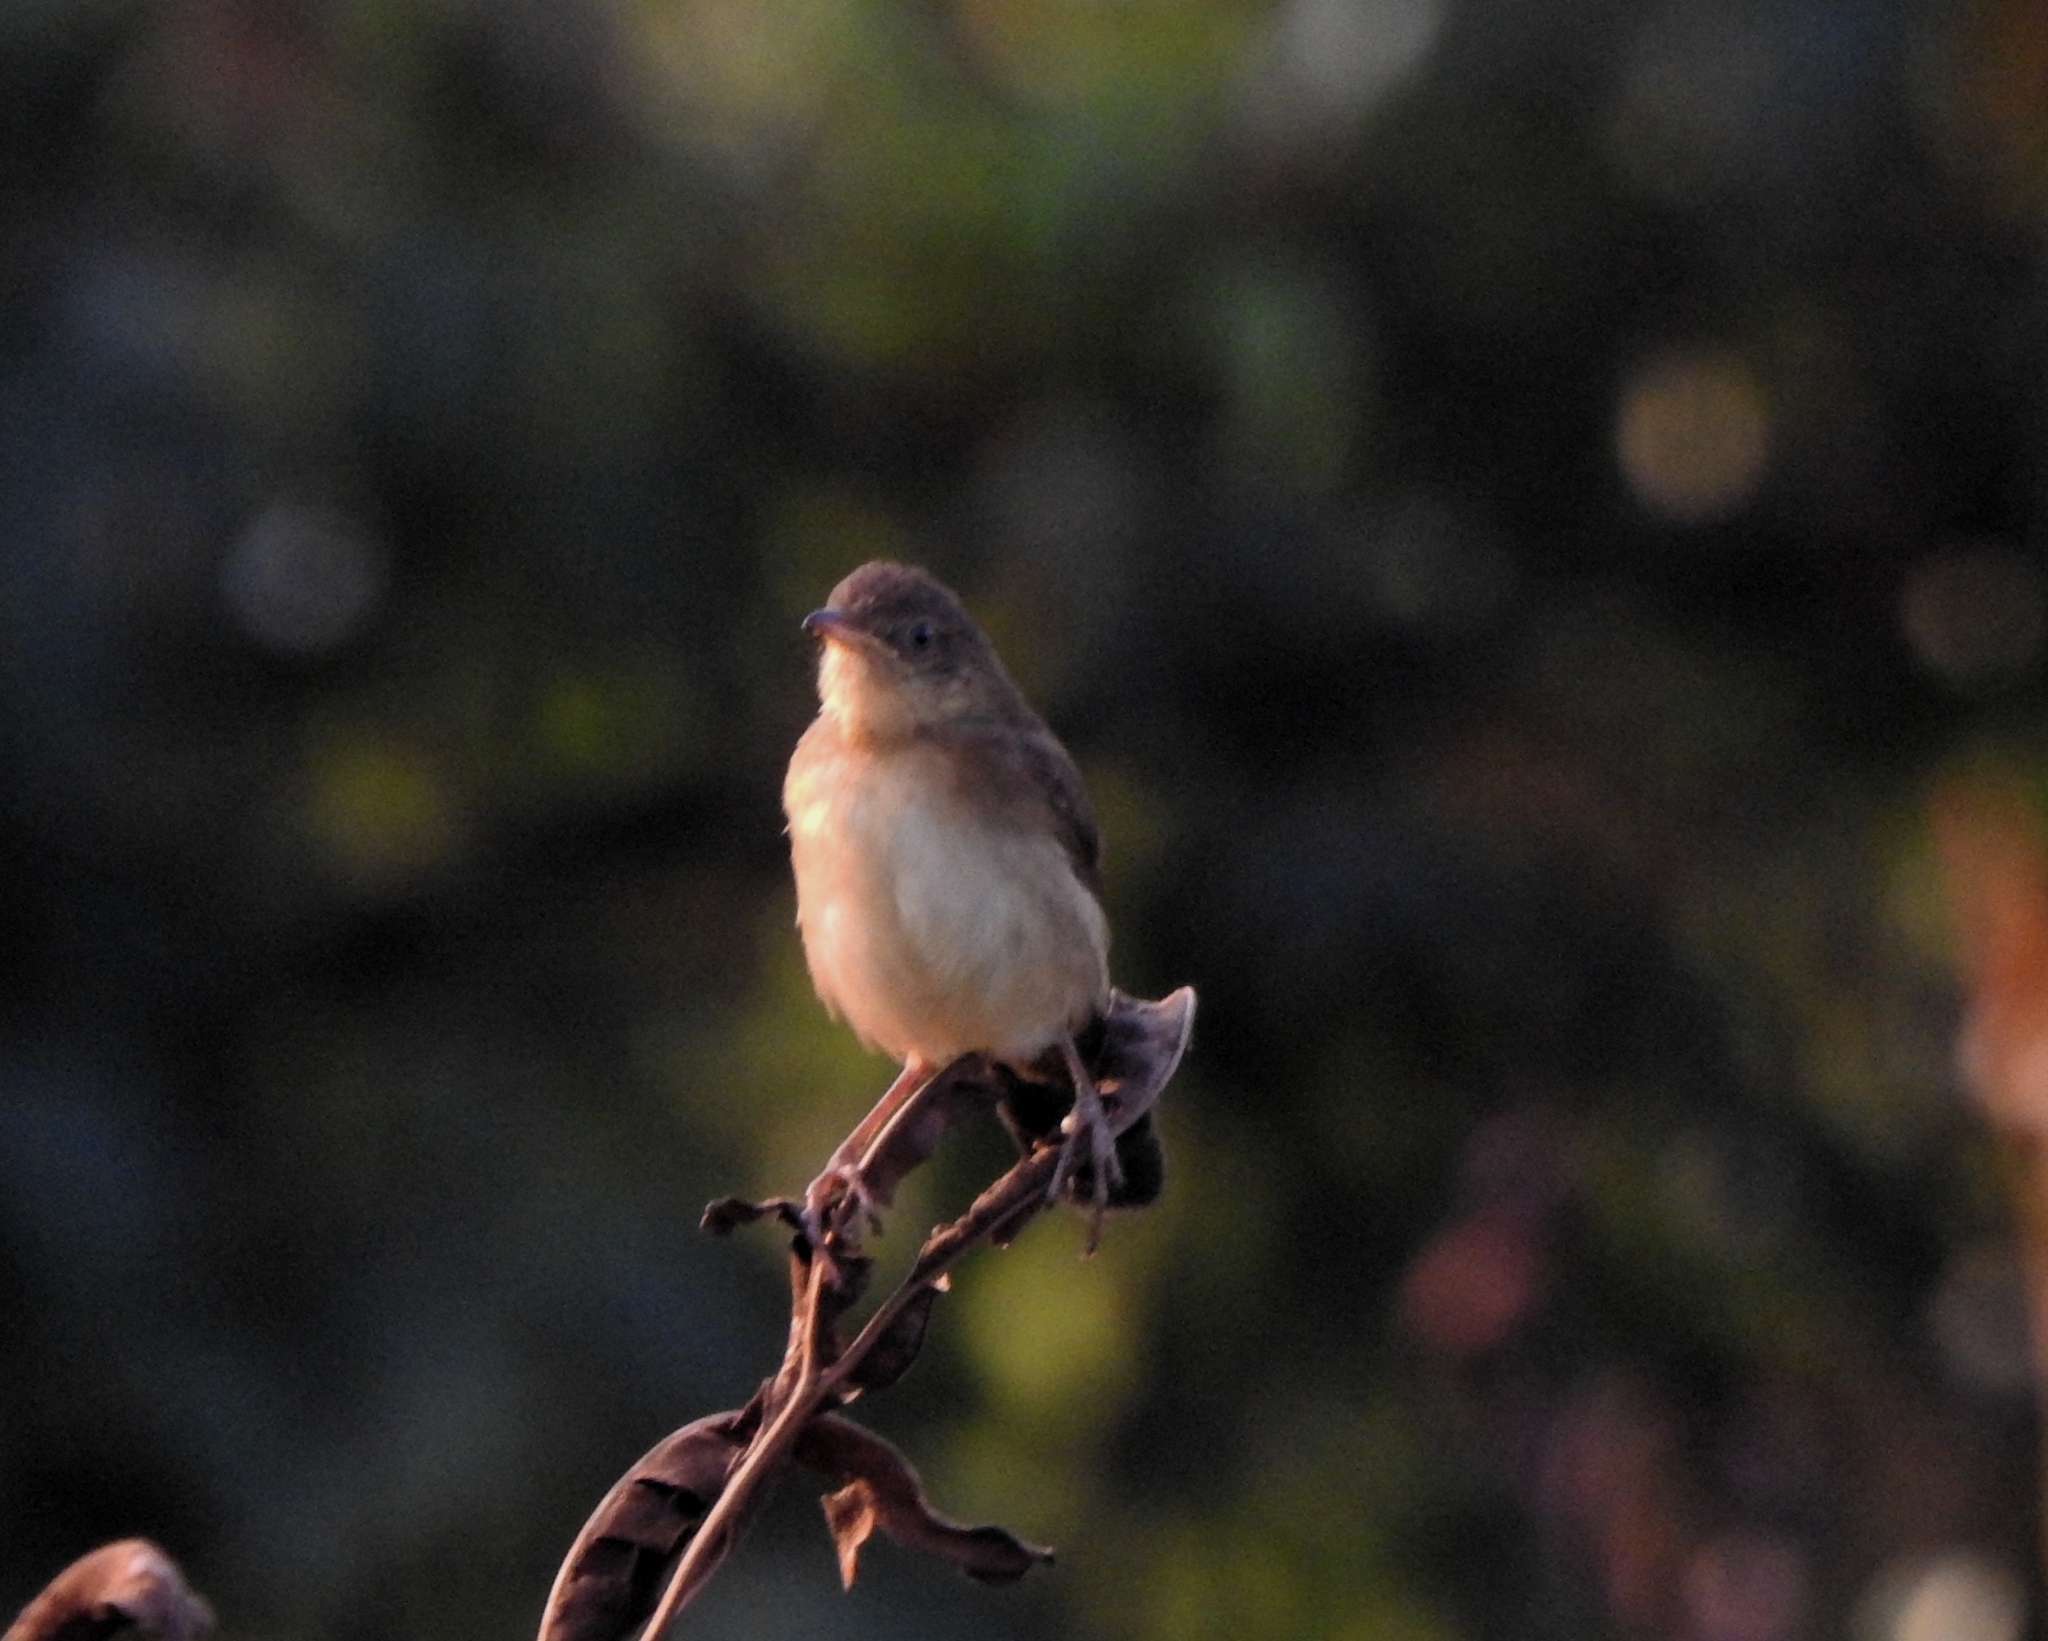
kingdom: Animalia
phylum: Chordata
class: Aves
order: Passeriformes
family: Locustellidae
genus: Schoenicola
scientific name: Schoenicola platyurus
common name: Broad-tailed grassbird
